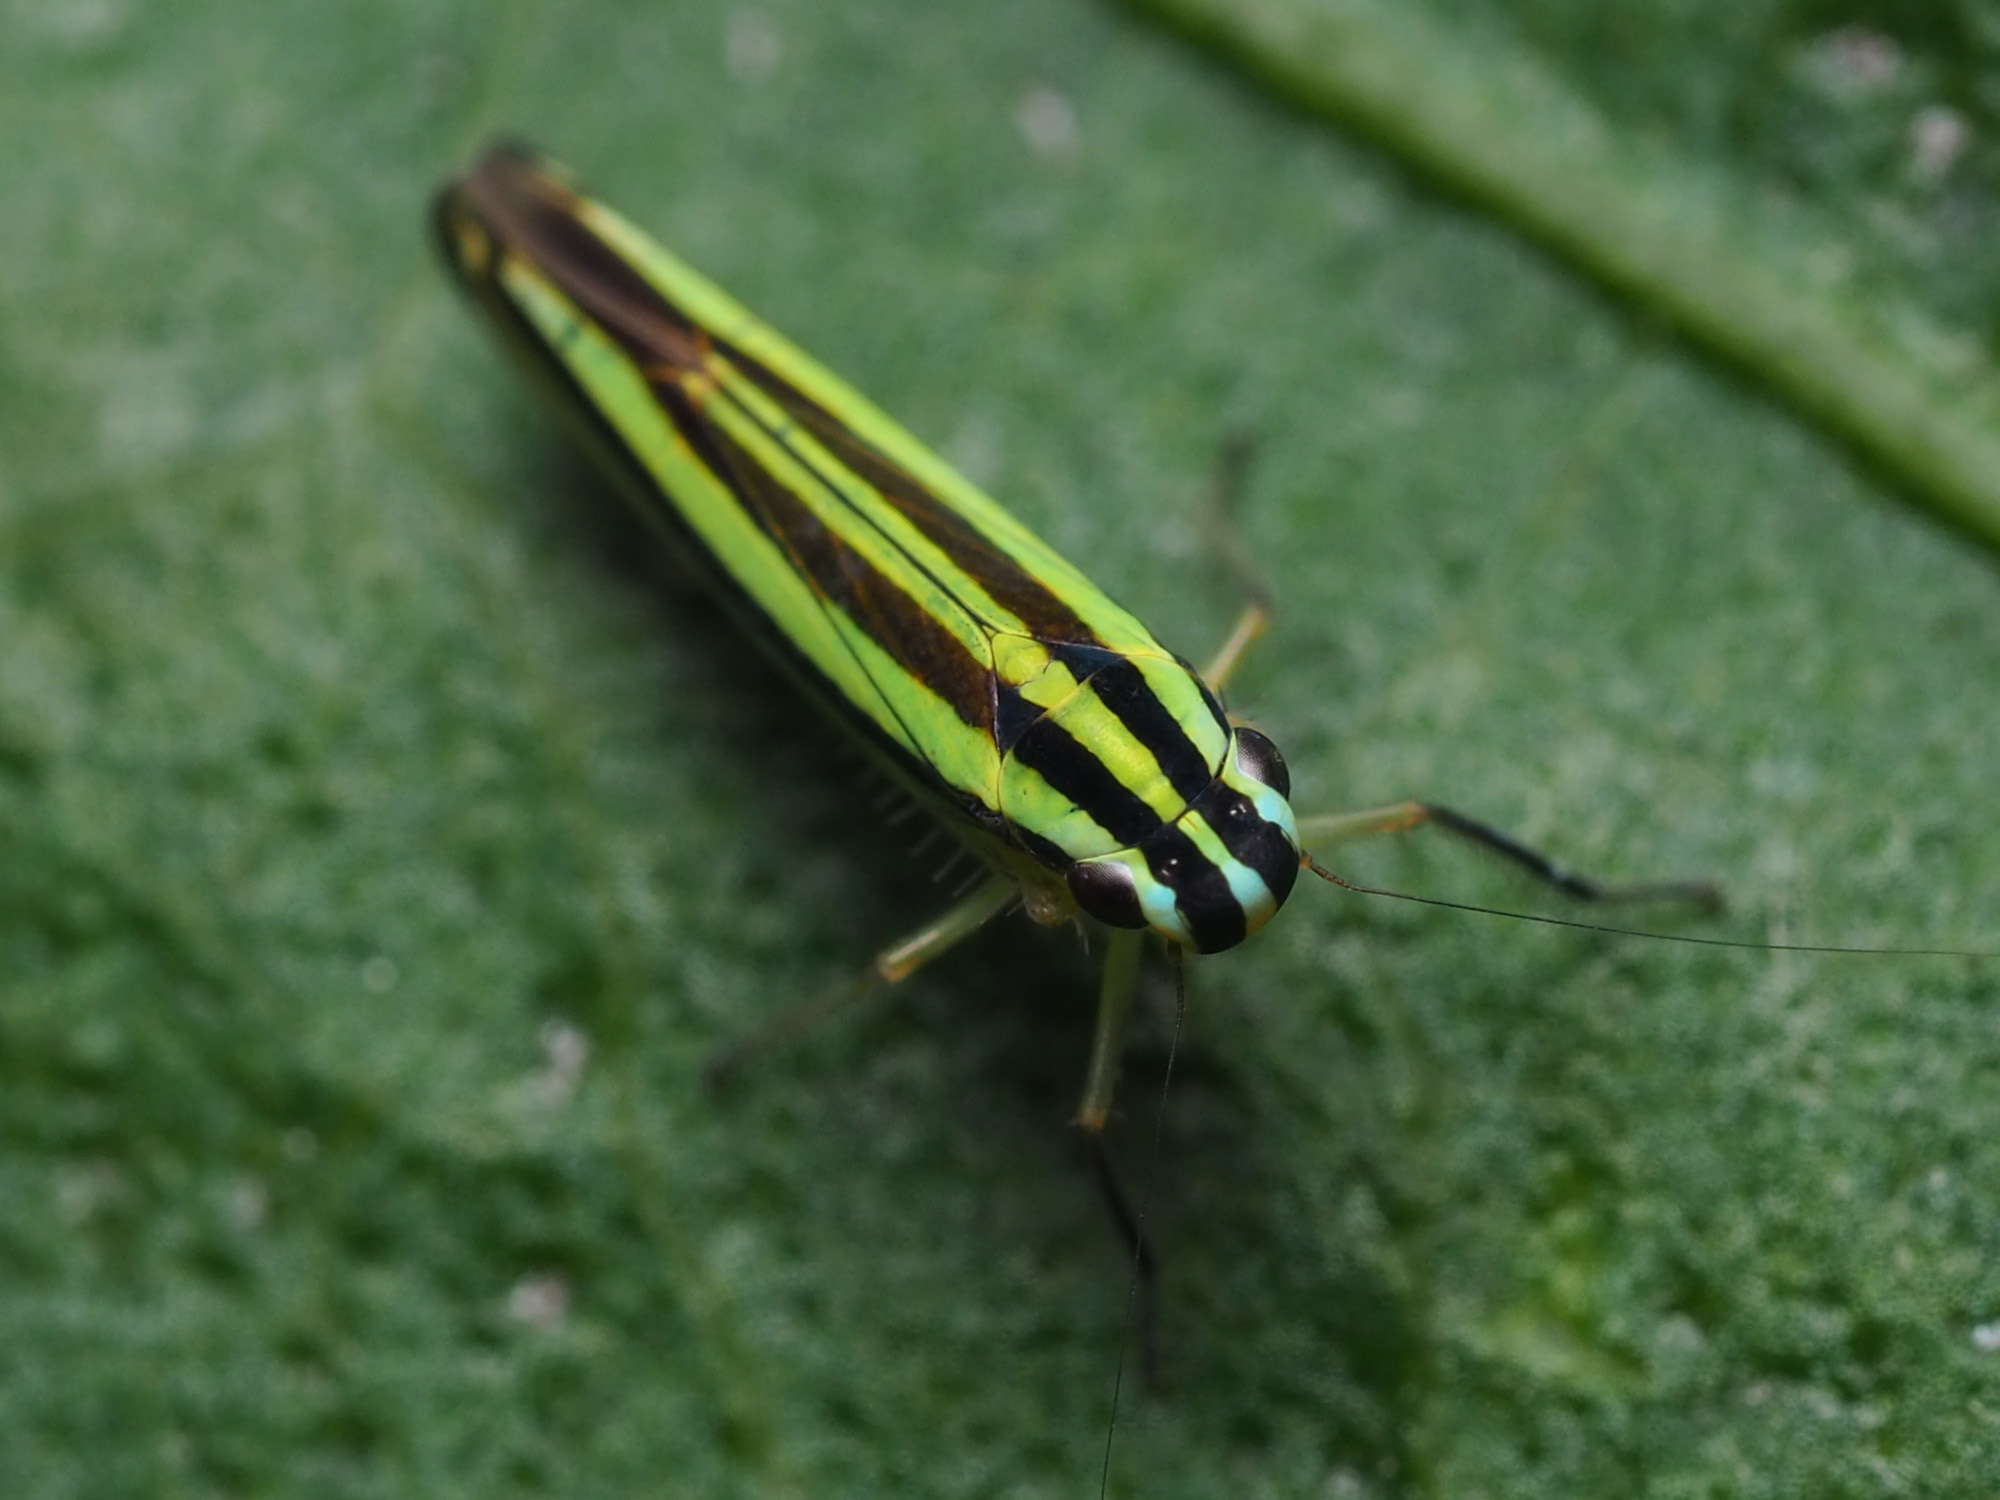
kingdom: Animalia
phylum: Arthropoda
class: Insecta
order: Hemiptera
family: Cicadellidae
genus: Sibovia
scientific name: Sibovia taeniatifrons
